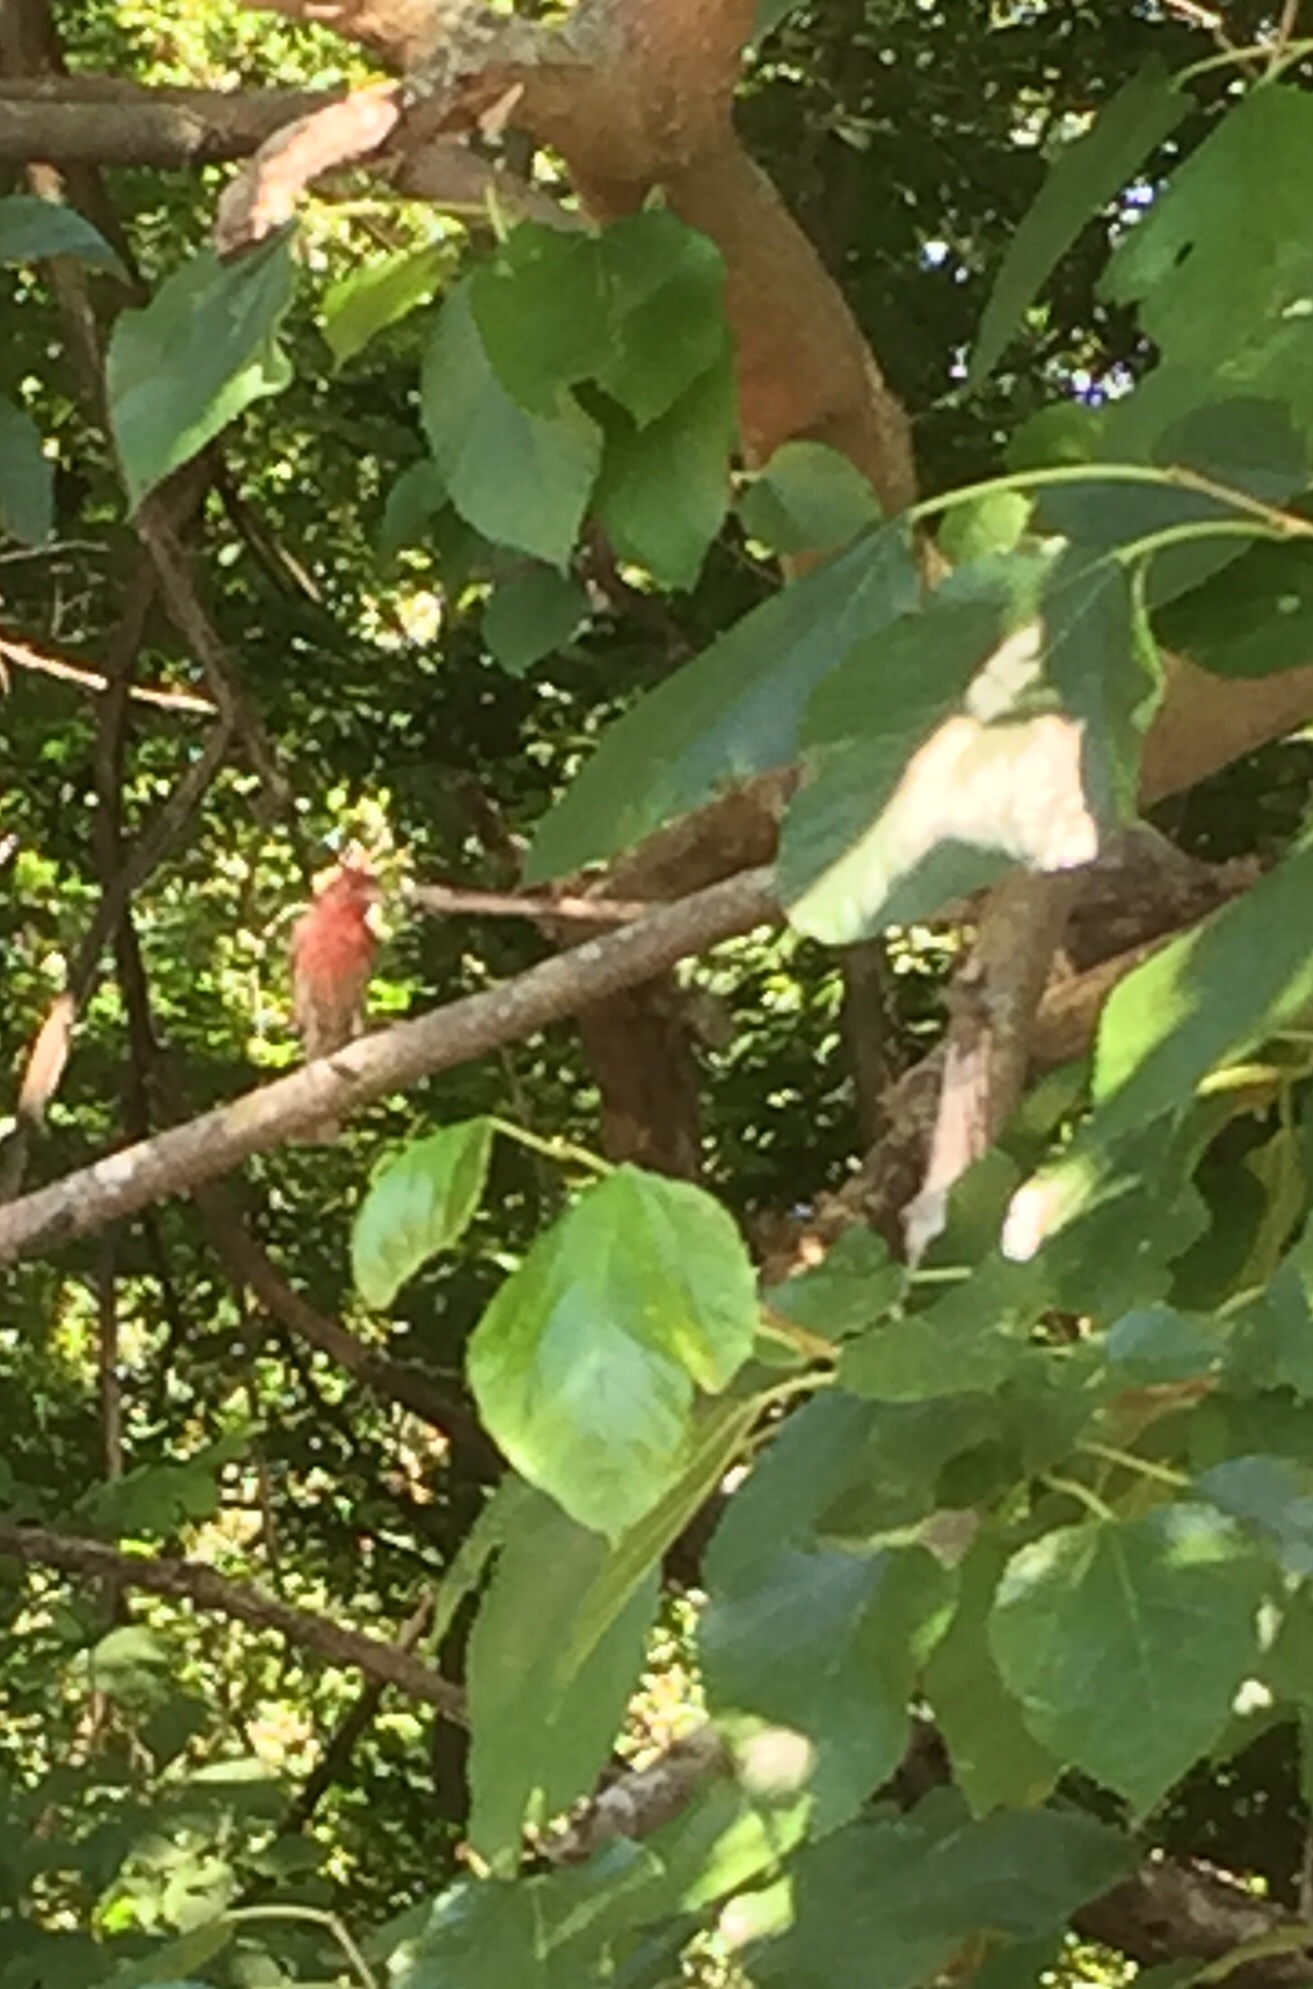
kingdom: Animalia
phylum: Chordata
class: Aves
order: Passeriformes
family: Fringillidae
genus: Haemorhous
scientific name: Haemorhous mexicanus
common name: House finch
